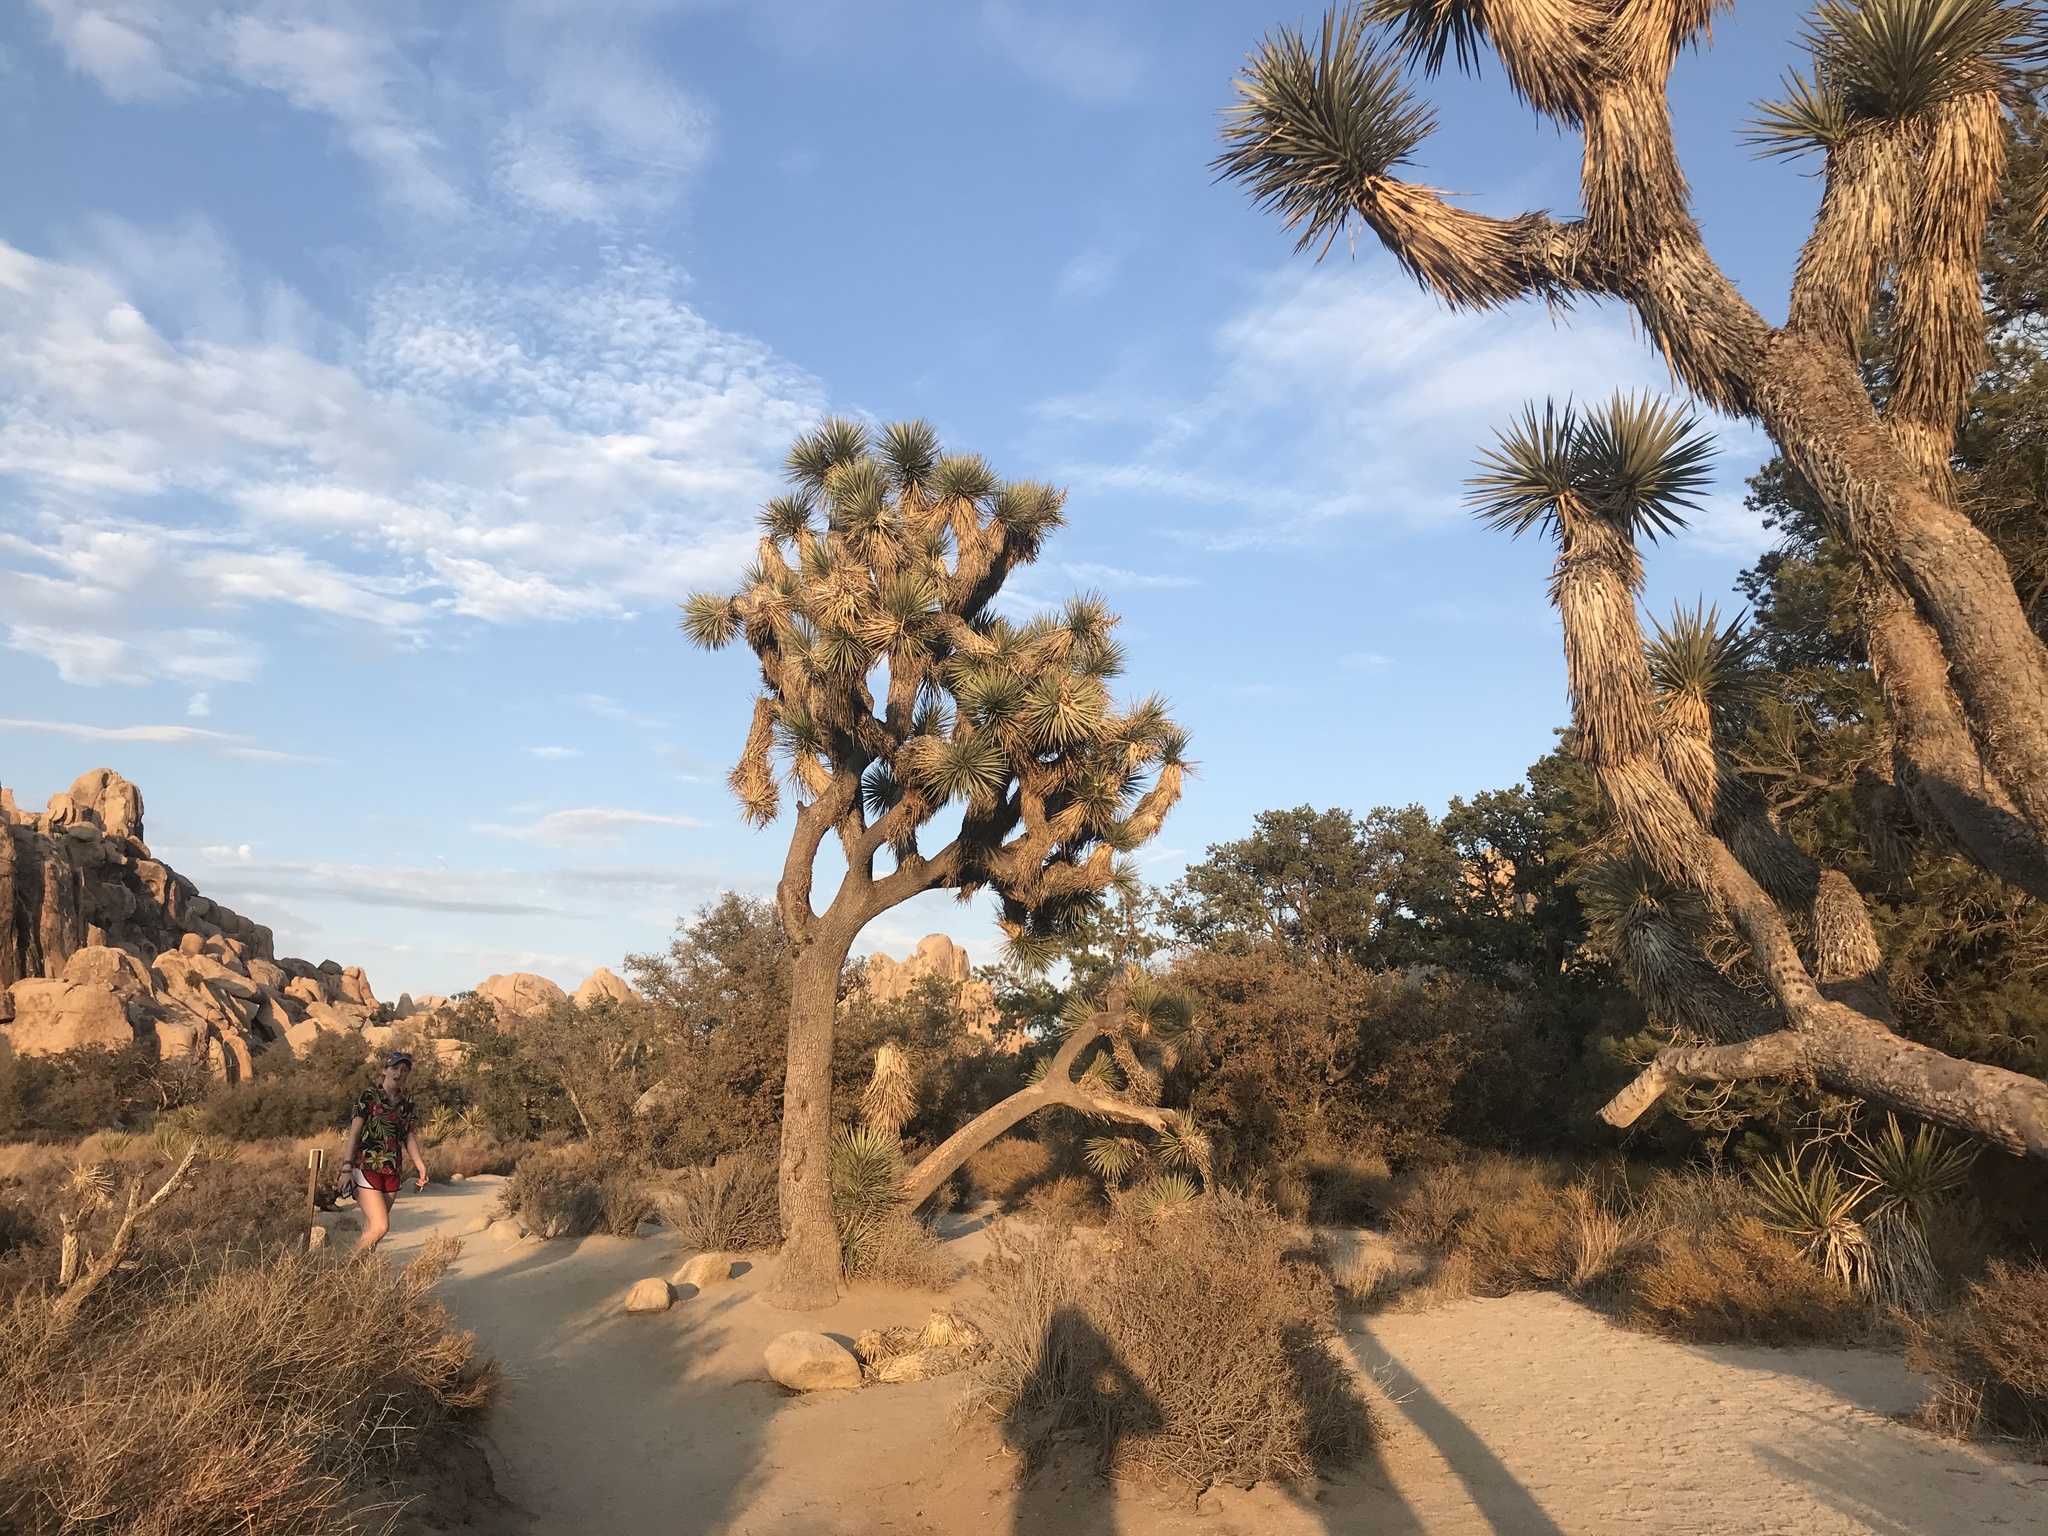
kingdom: Plantae
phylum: Tracheophyta
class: Liliopsida
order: Asparagales
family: Asparagaceae
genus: Yucca
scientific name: Yucca brevifolia
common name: Joshua tree
